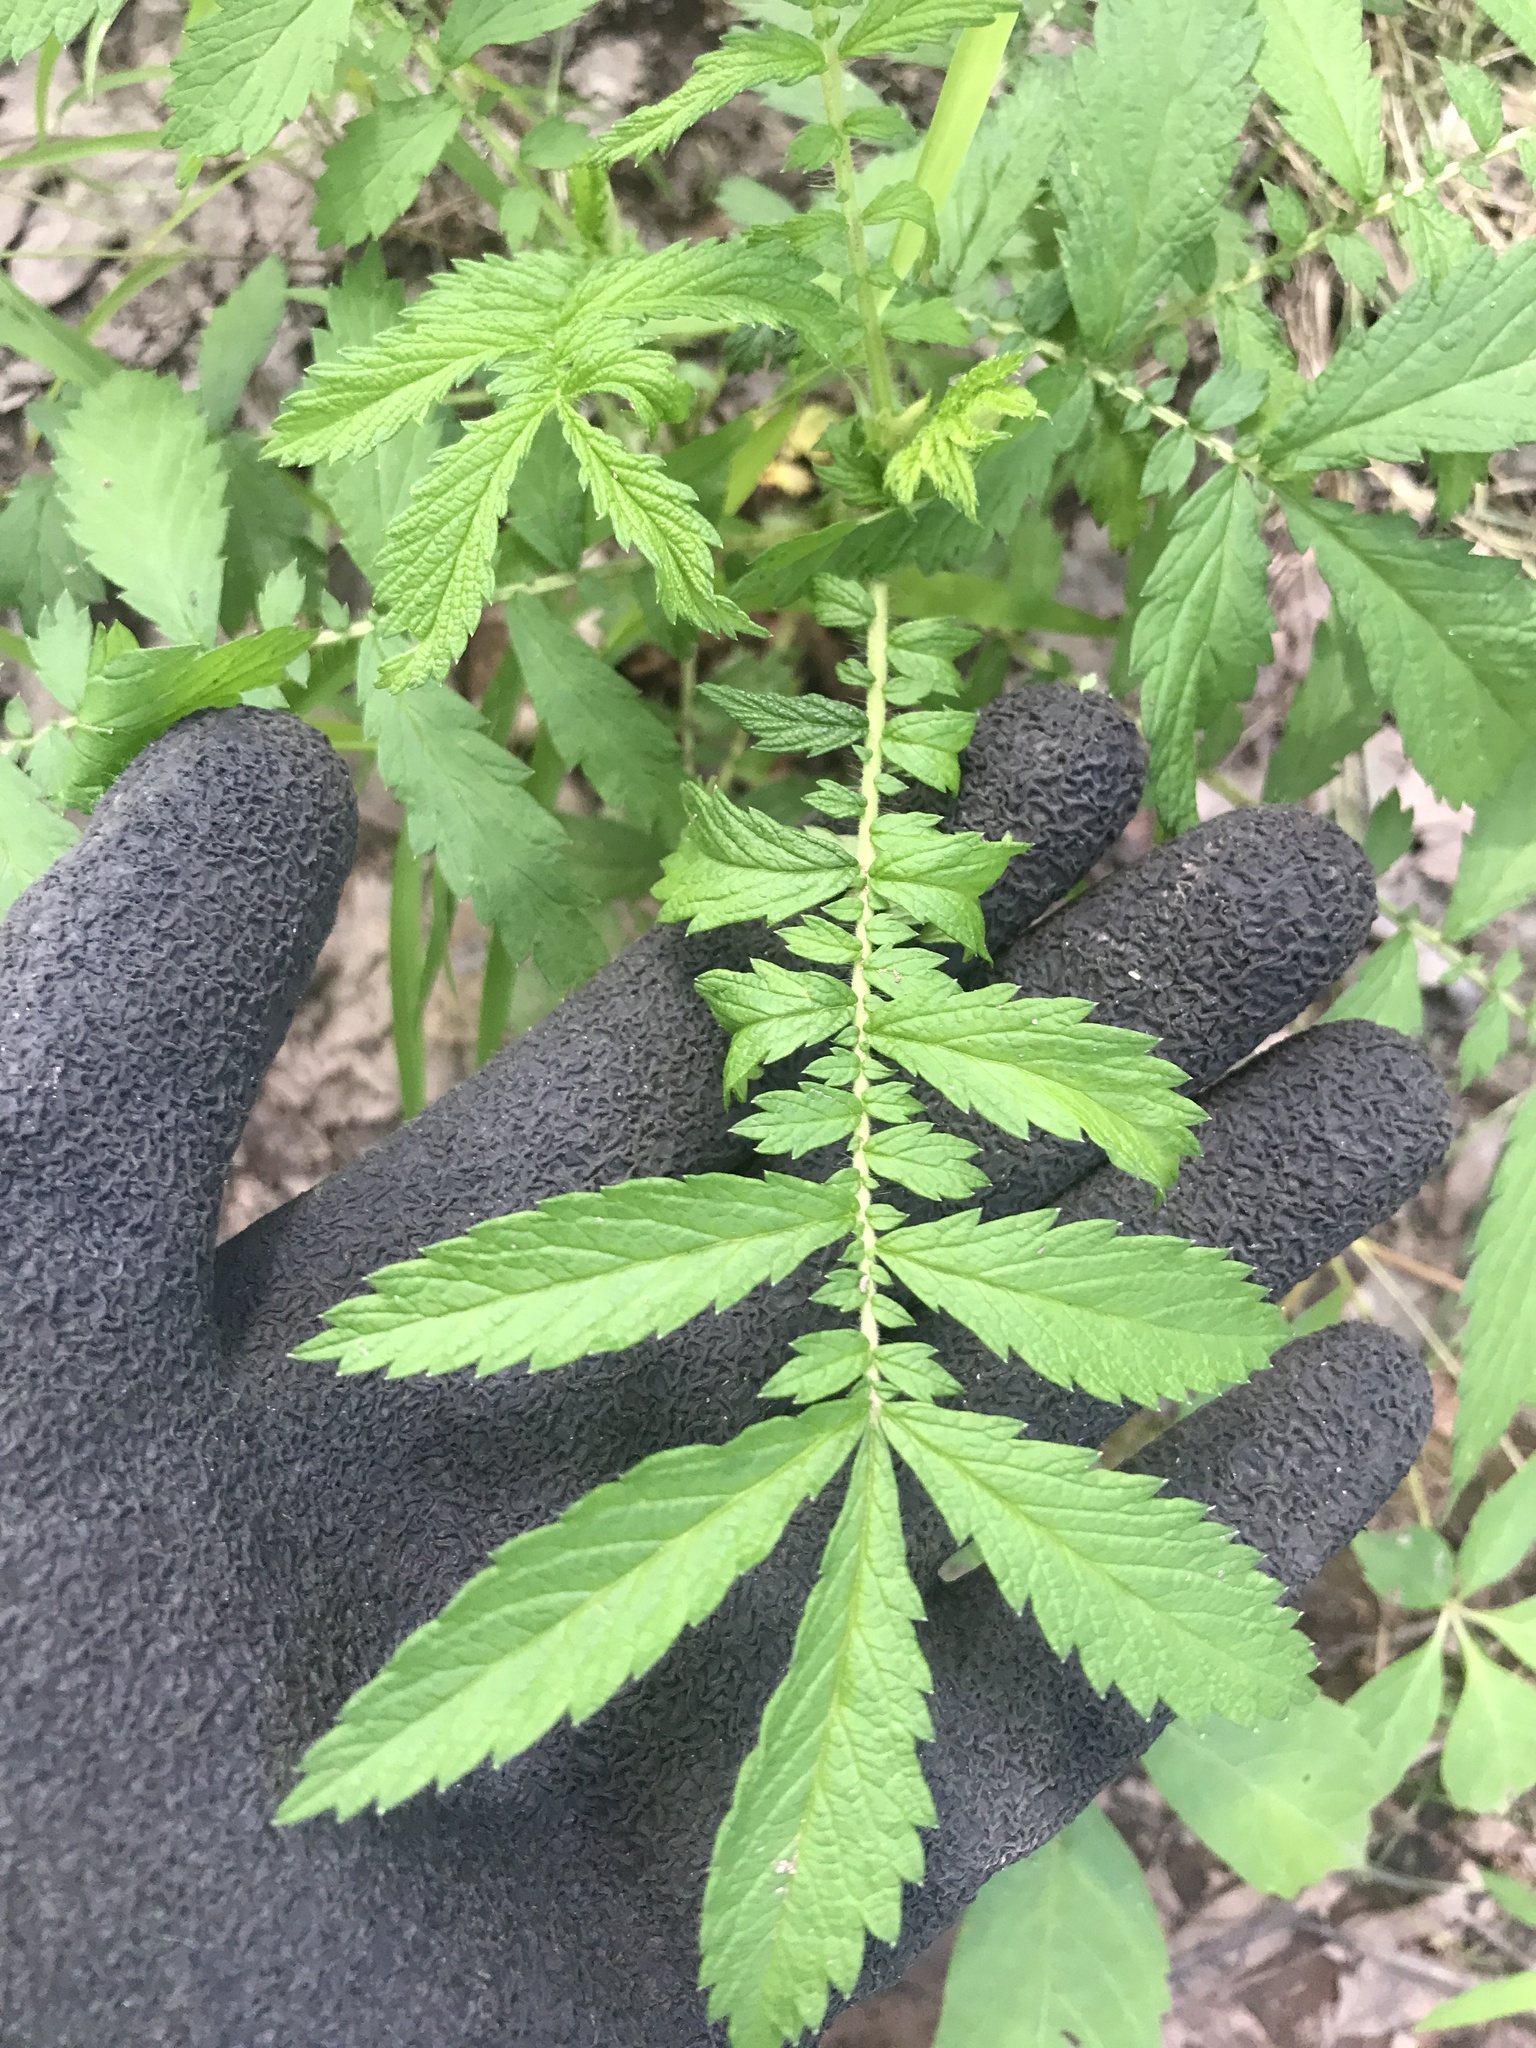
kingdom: Plantae
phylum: Tracheophyta
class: Magnoliopsida
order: Rosales
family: Rosaceae
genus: Agrimonia
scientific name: Agrimonia parviflora
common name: Harvest-lice
